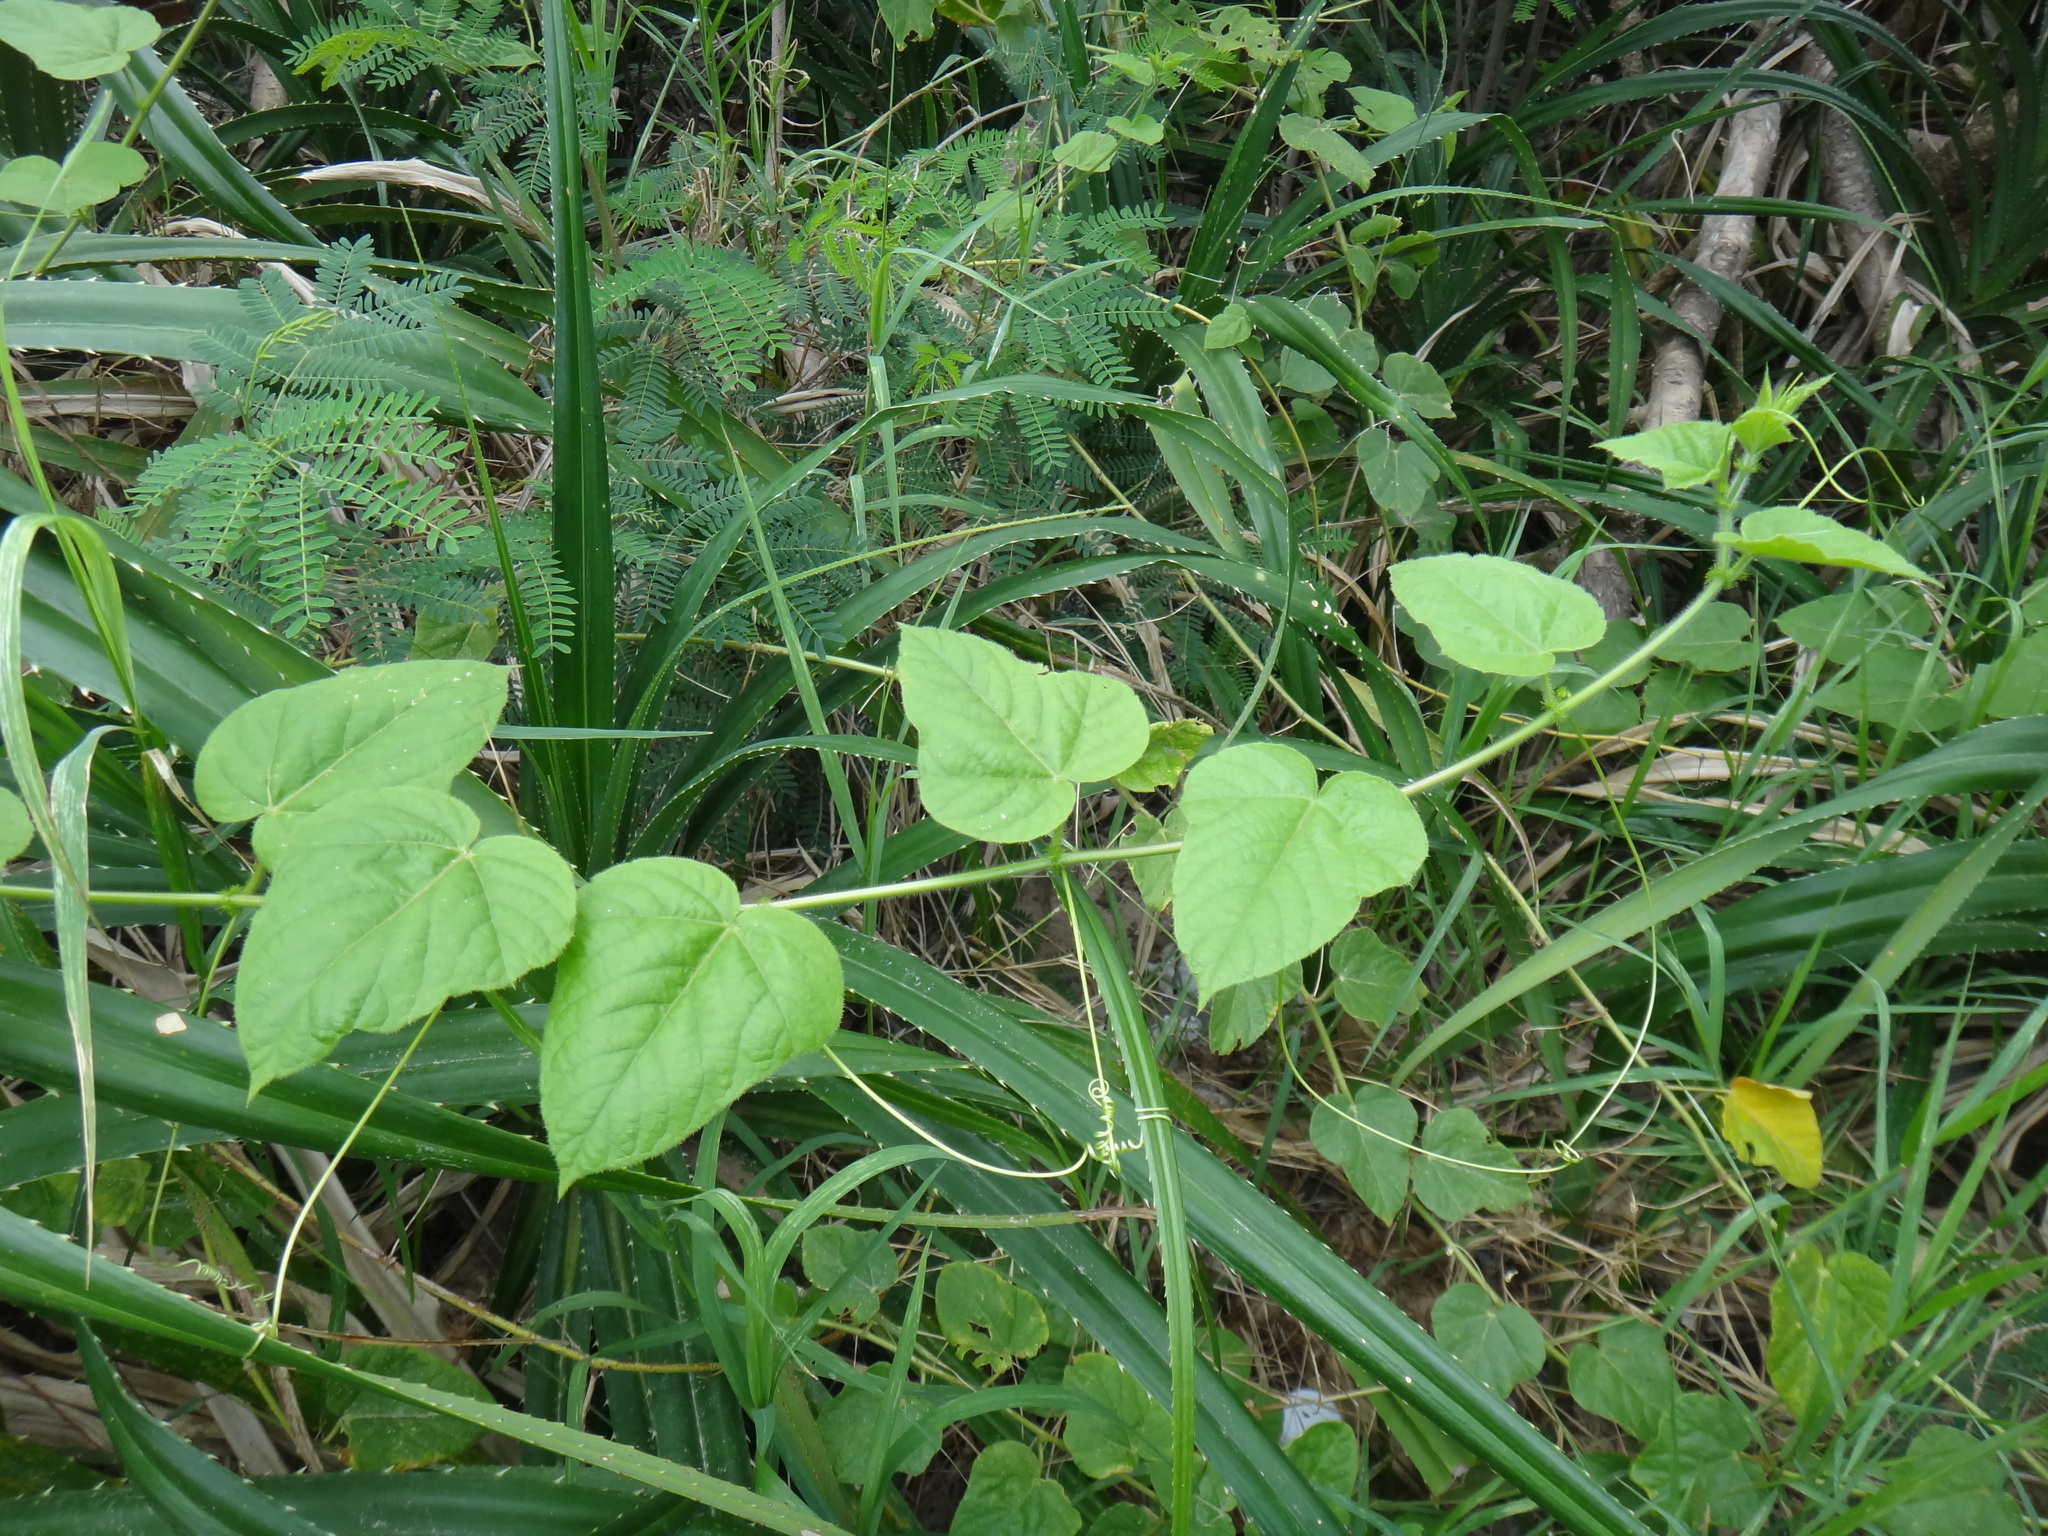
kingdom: Plantae
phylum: Tracheophyta
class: Magnoliopsida
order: Malpighiales
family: Passifloraceae
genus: Passiflora
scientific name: Passiflora vesicaria
